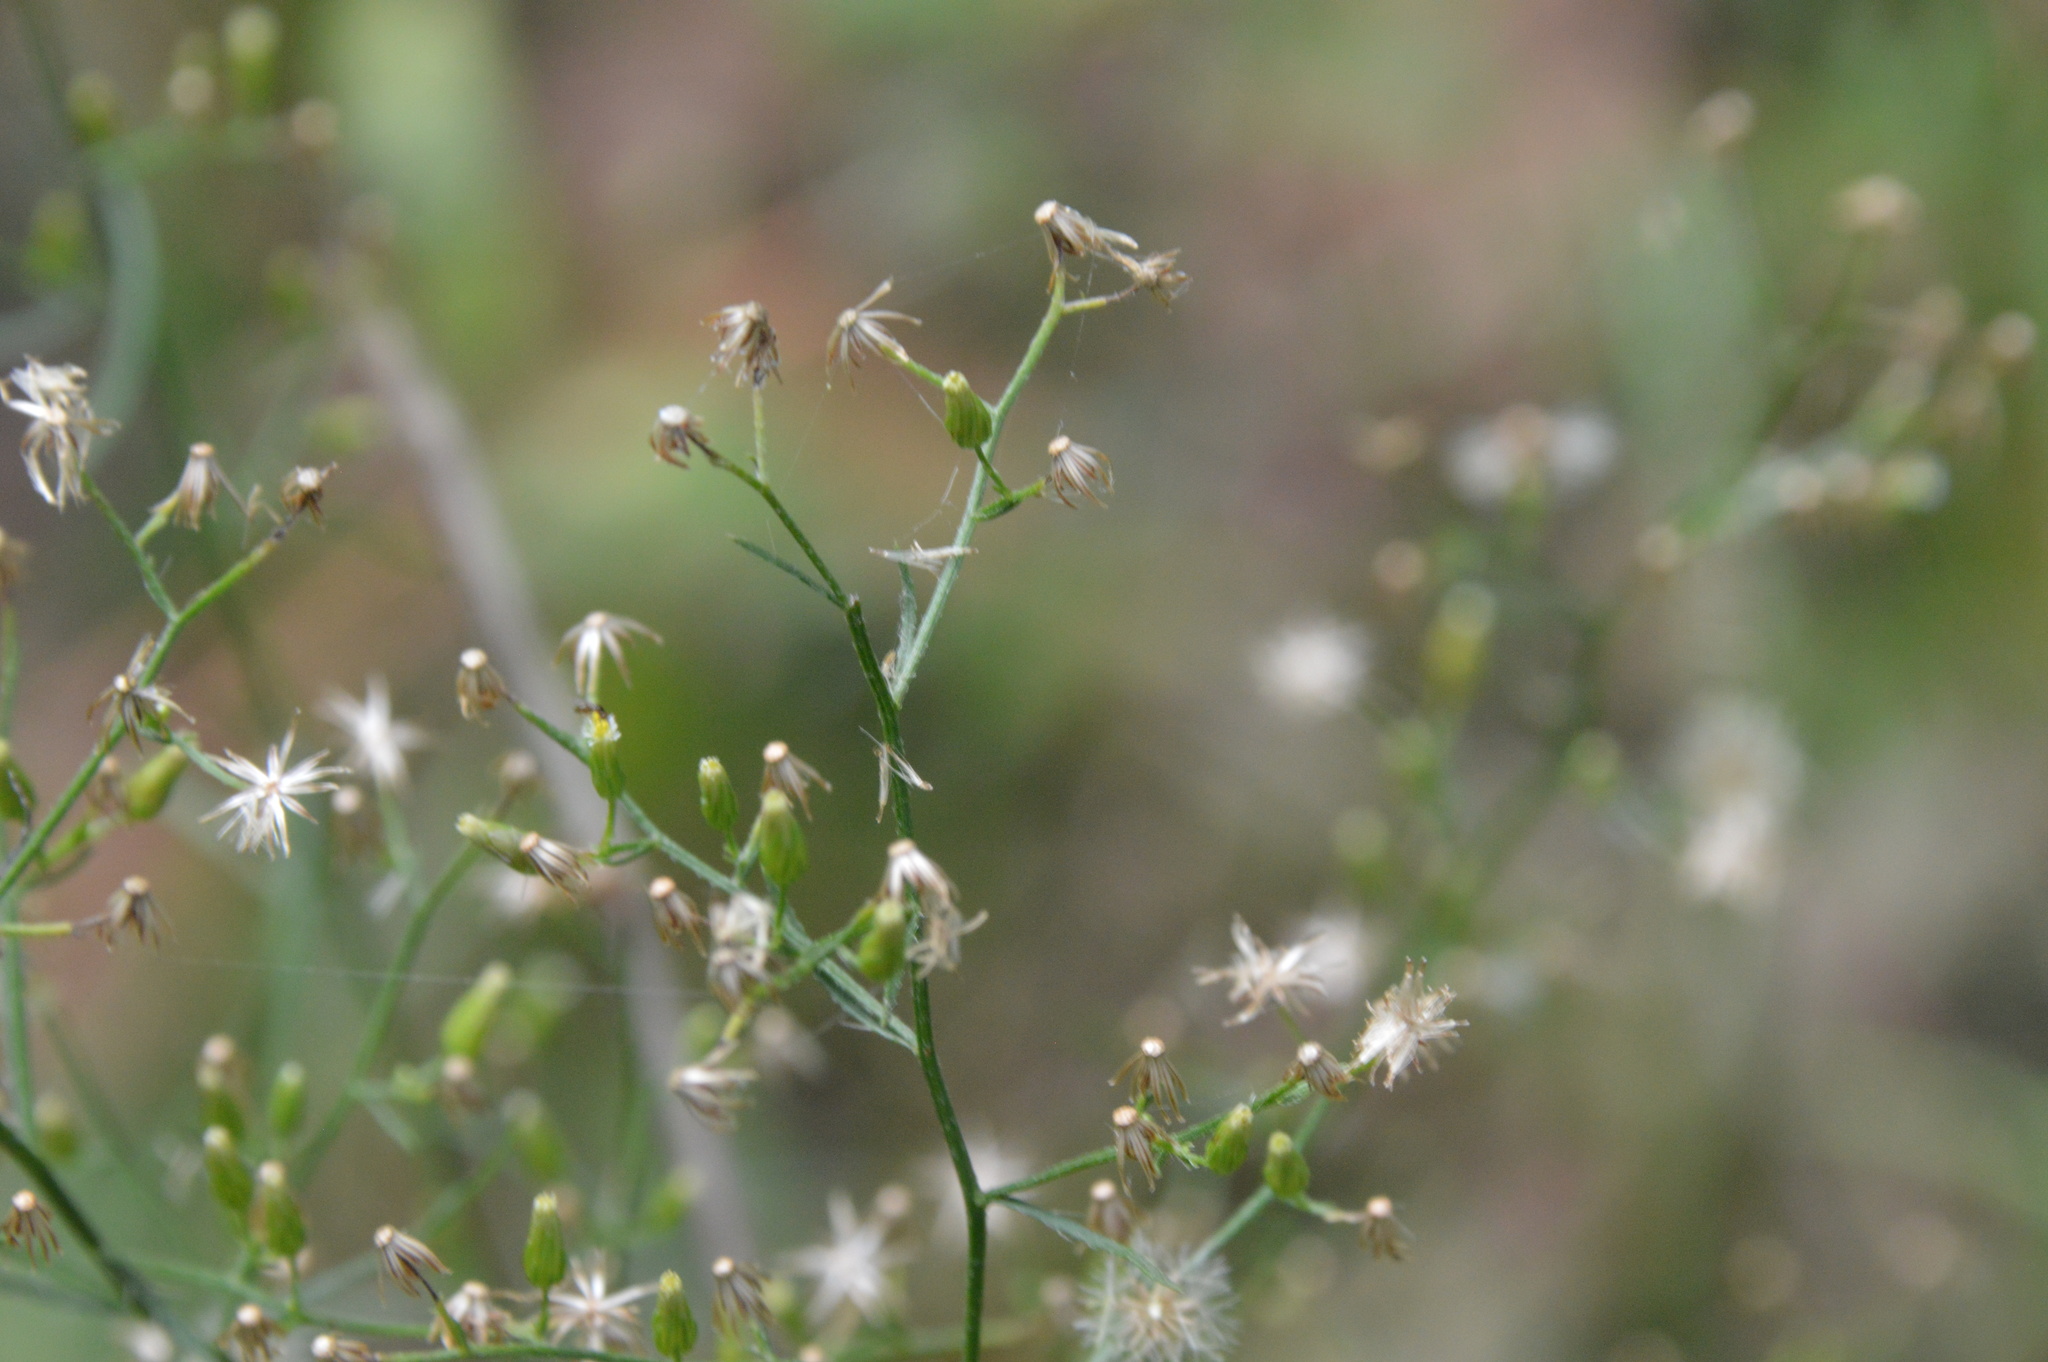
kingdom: Plantae
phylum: Tracheophyta
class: Magnoliopsida
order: Asterales
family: Asteraceae
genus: Erigeron
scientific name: Erigeron canadensis
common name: Canadian fleabane
